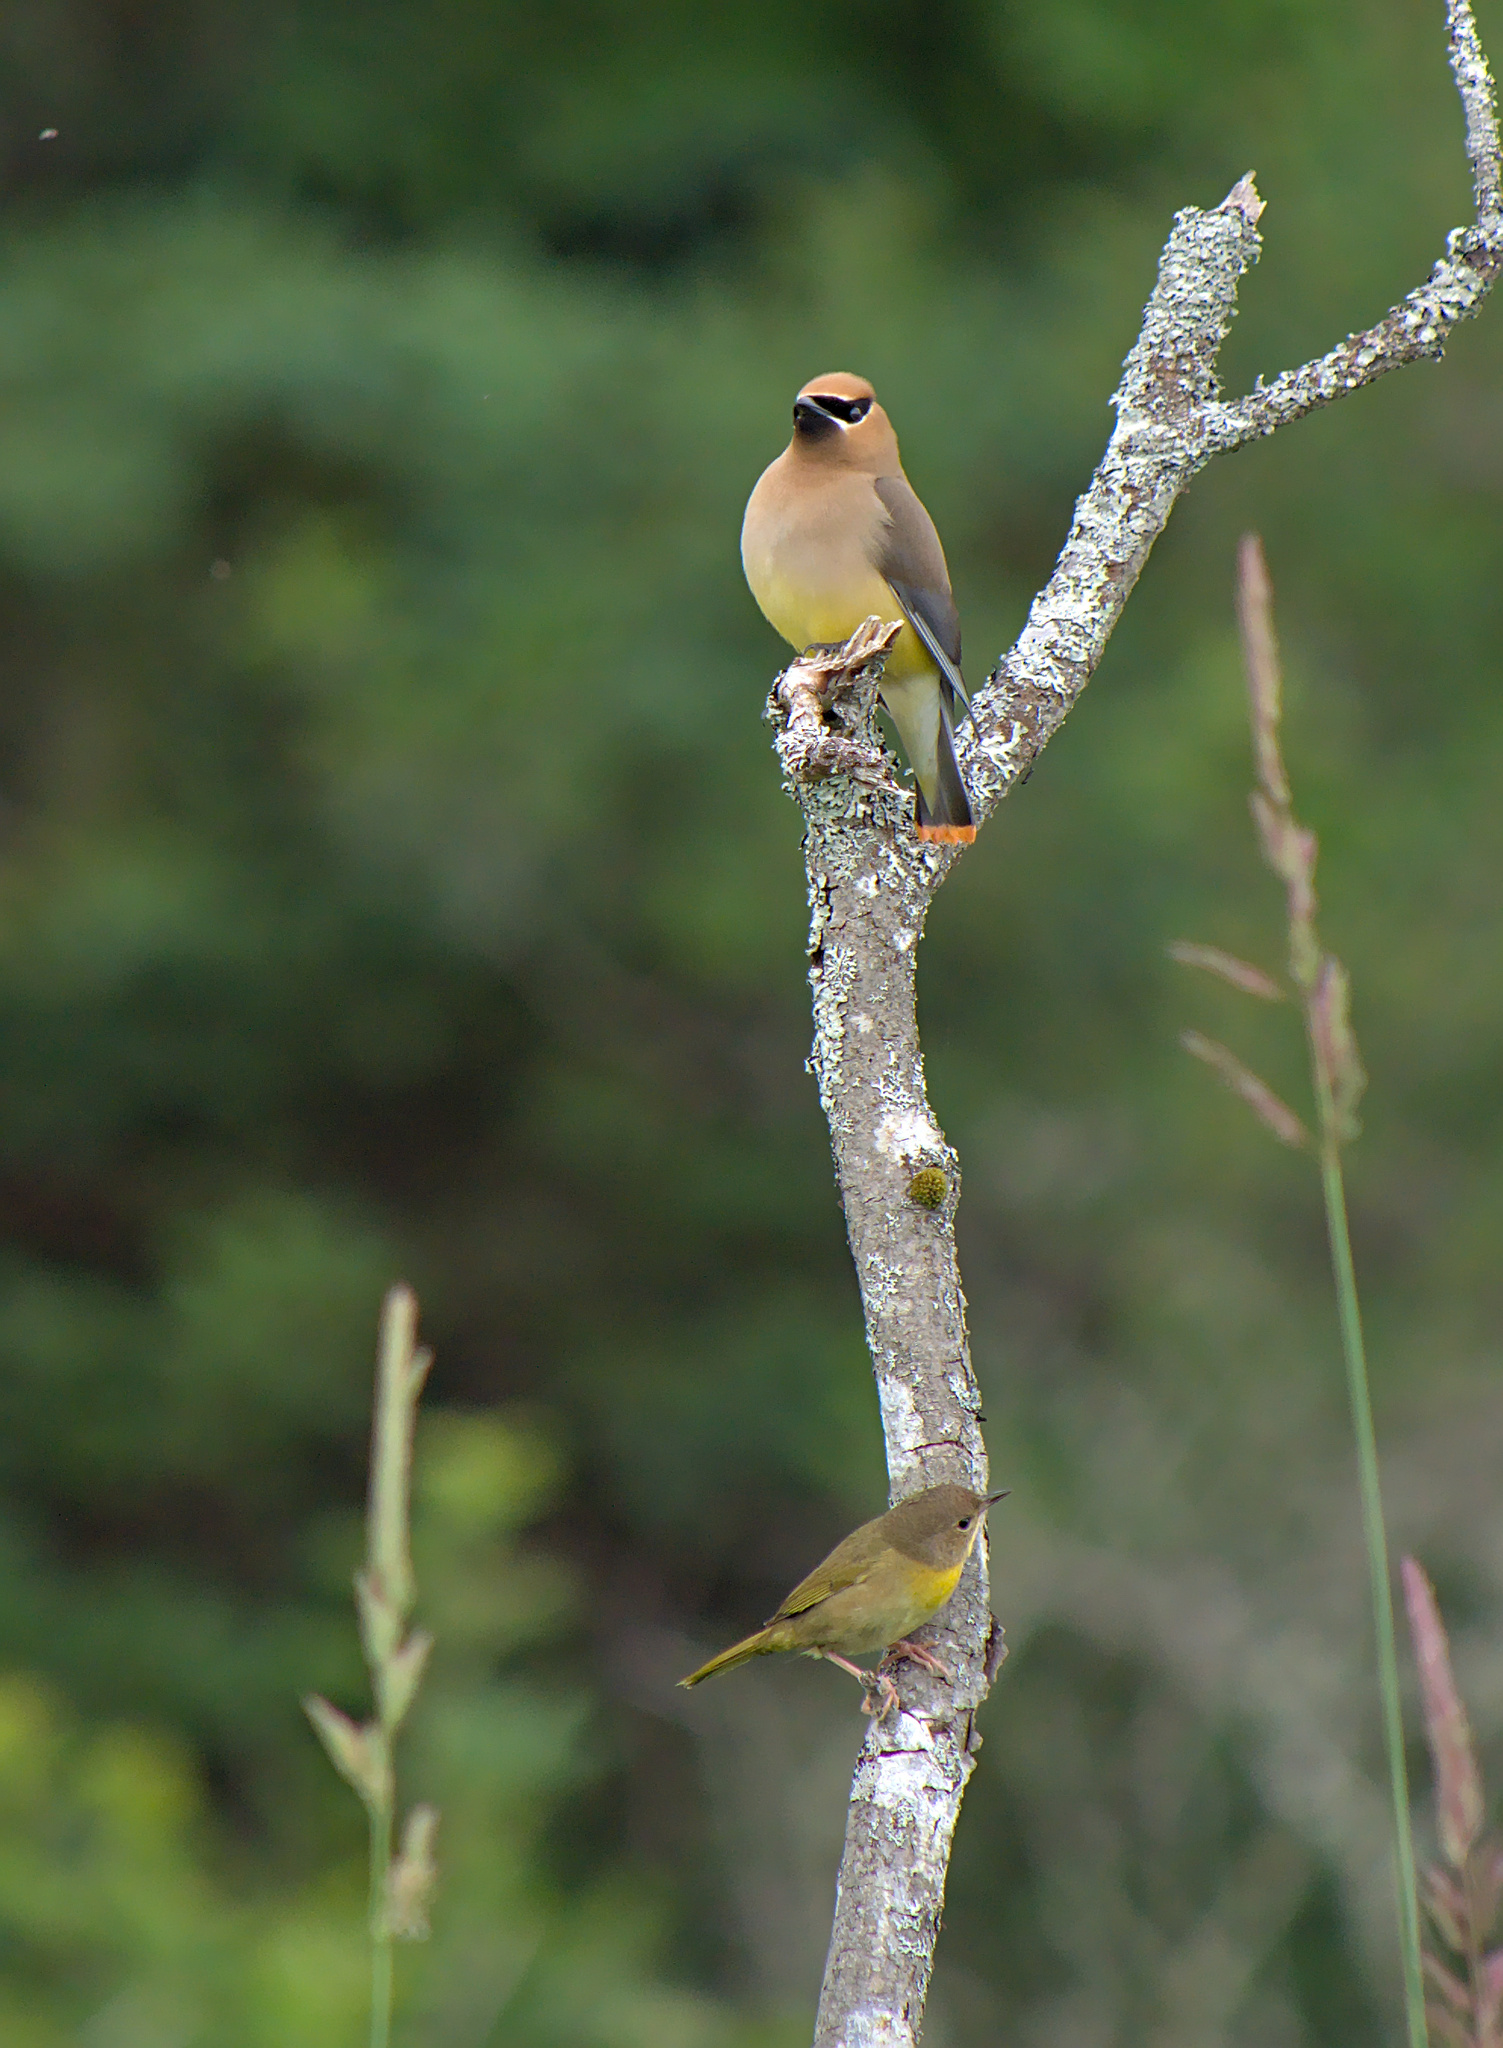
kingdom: Animalia
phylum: Chordata
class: Aves
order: Passeriformes
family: Bombycillidae
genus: Bombycilla
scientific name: Bombycilla cedrorum
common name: Cedar waxwing
